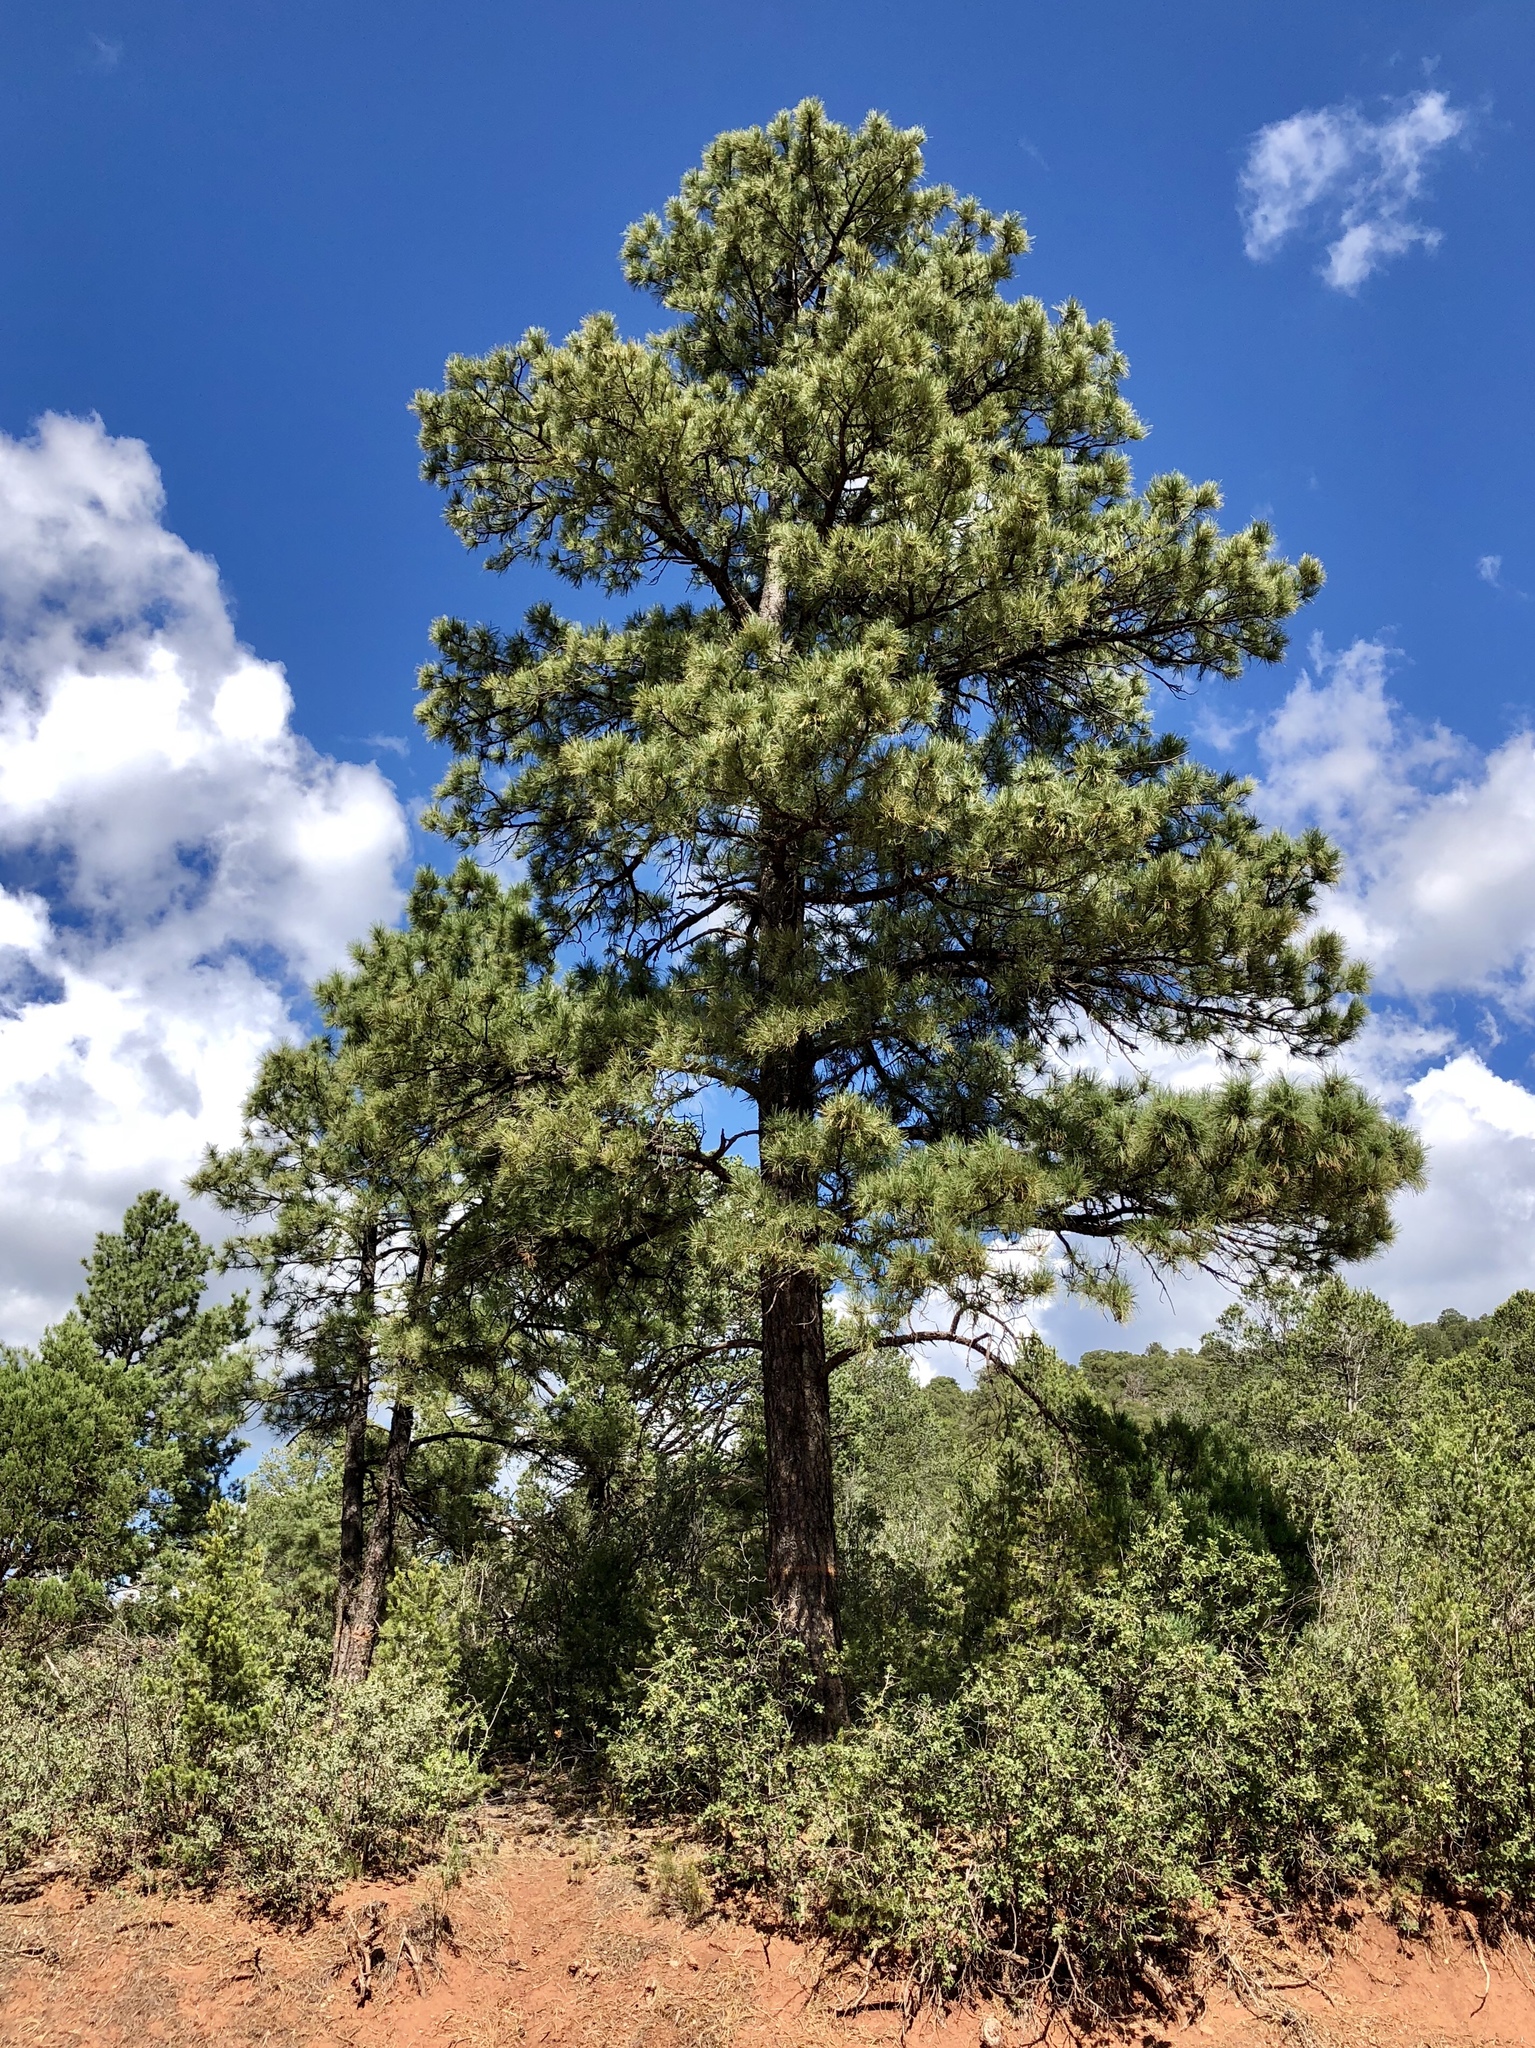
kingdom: Plantae
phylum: Tracheophyta
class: Pinopsida
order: Pinales
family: Pinaceae
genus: Pinus
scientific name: Pinus ponderosa
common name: Western yellow-pine
